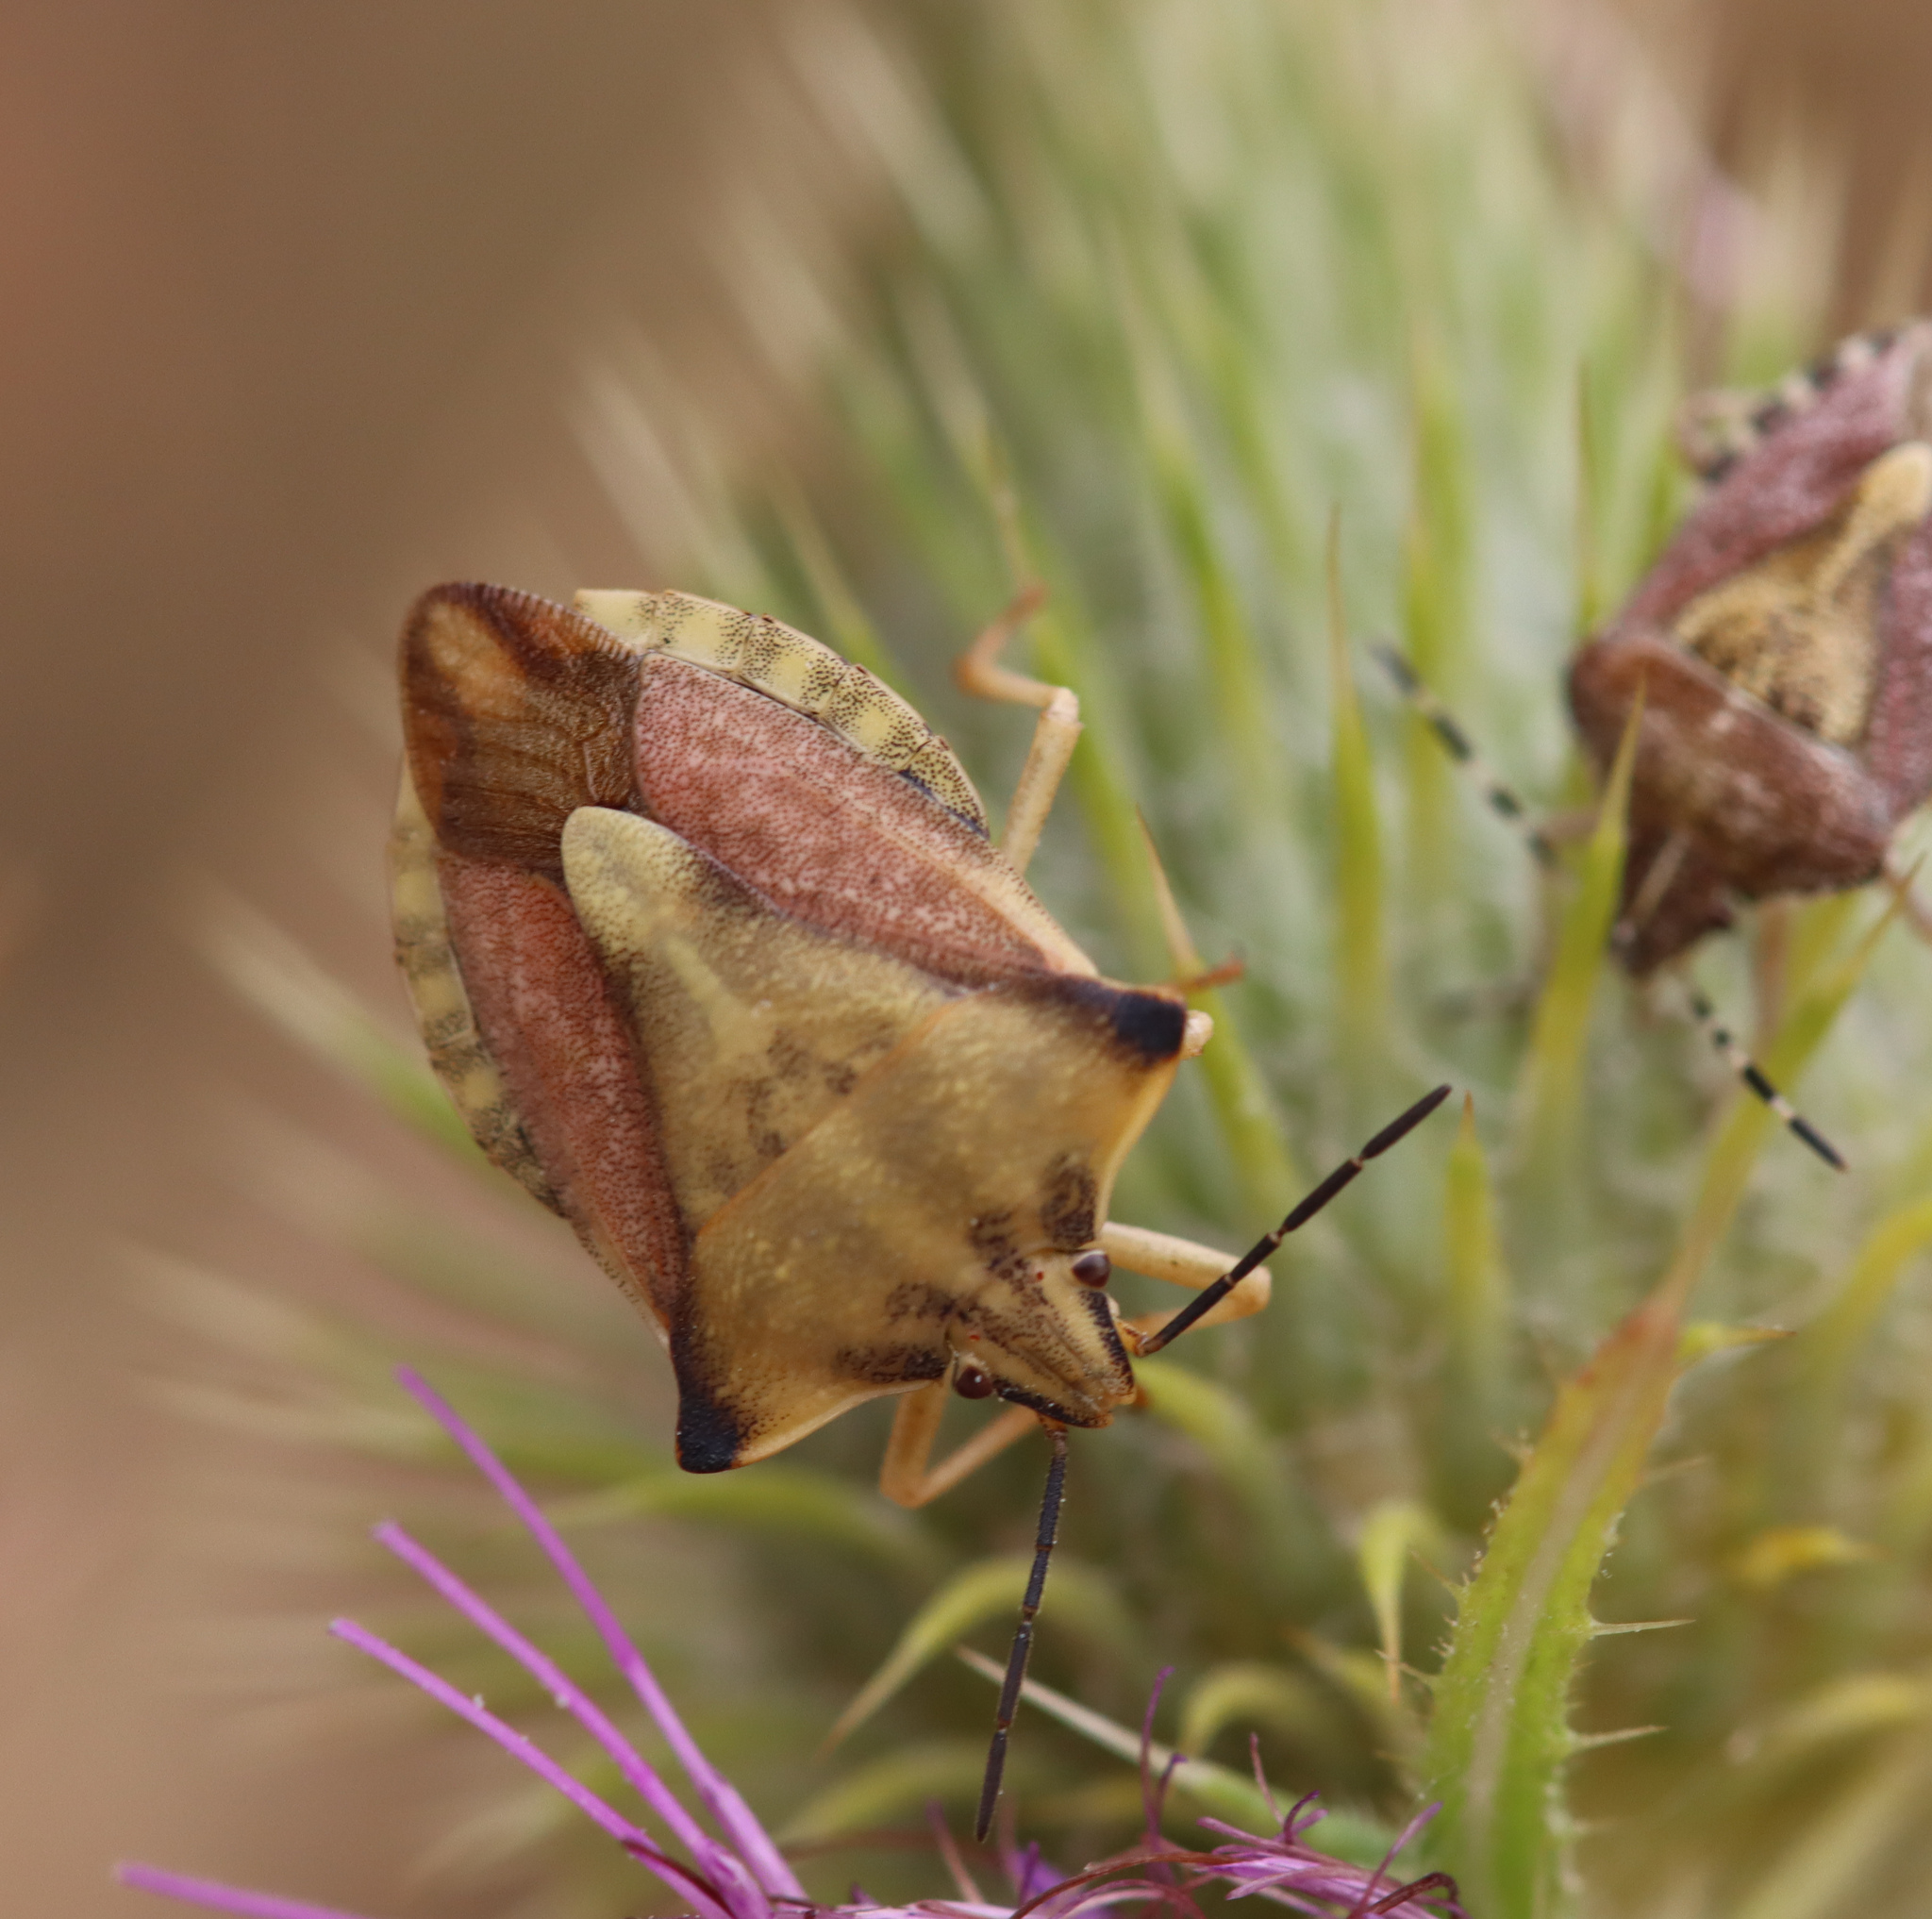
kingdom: Animalia
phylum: Arthropoda
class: Insecta
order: Hemiptera
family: Pentatomidae
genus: Carpocoris
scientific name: Carpocoris fuscispinus
